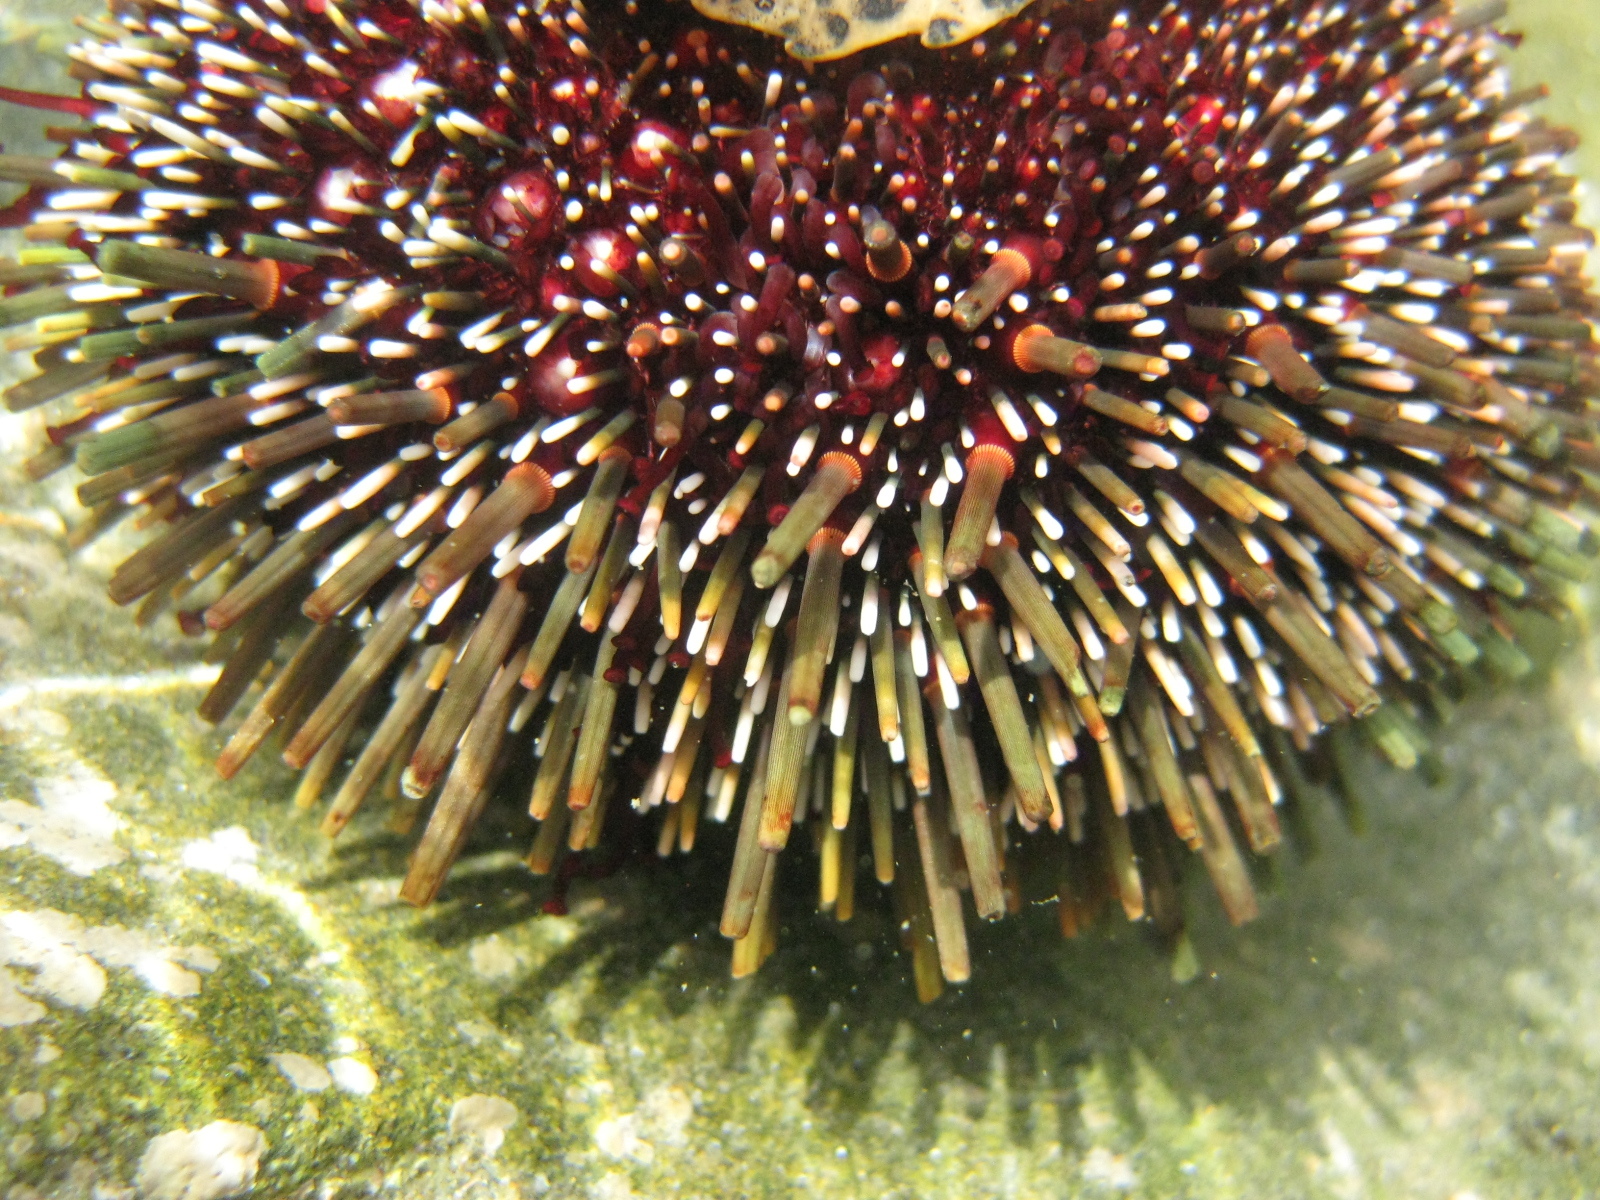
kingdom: Animalia
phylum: Echinodermata
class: Echinoidea
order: Camarodonta
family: Echinometridae
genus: Evechinus
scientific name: Evechinus chloroticus
